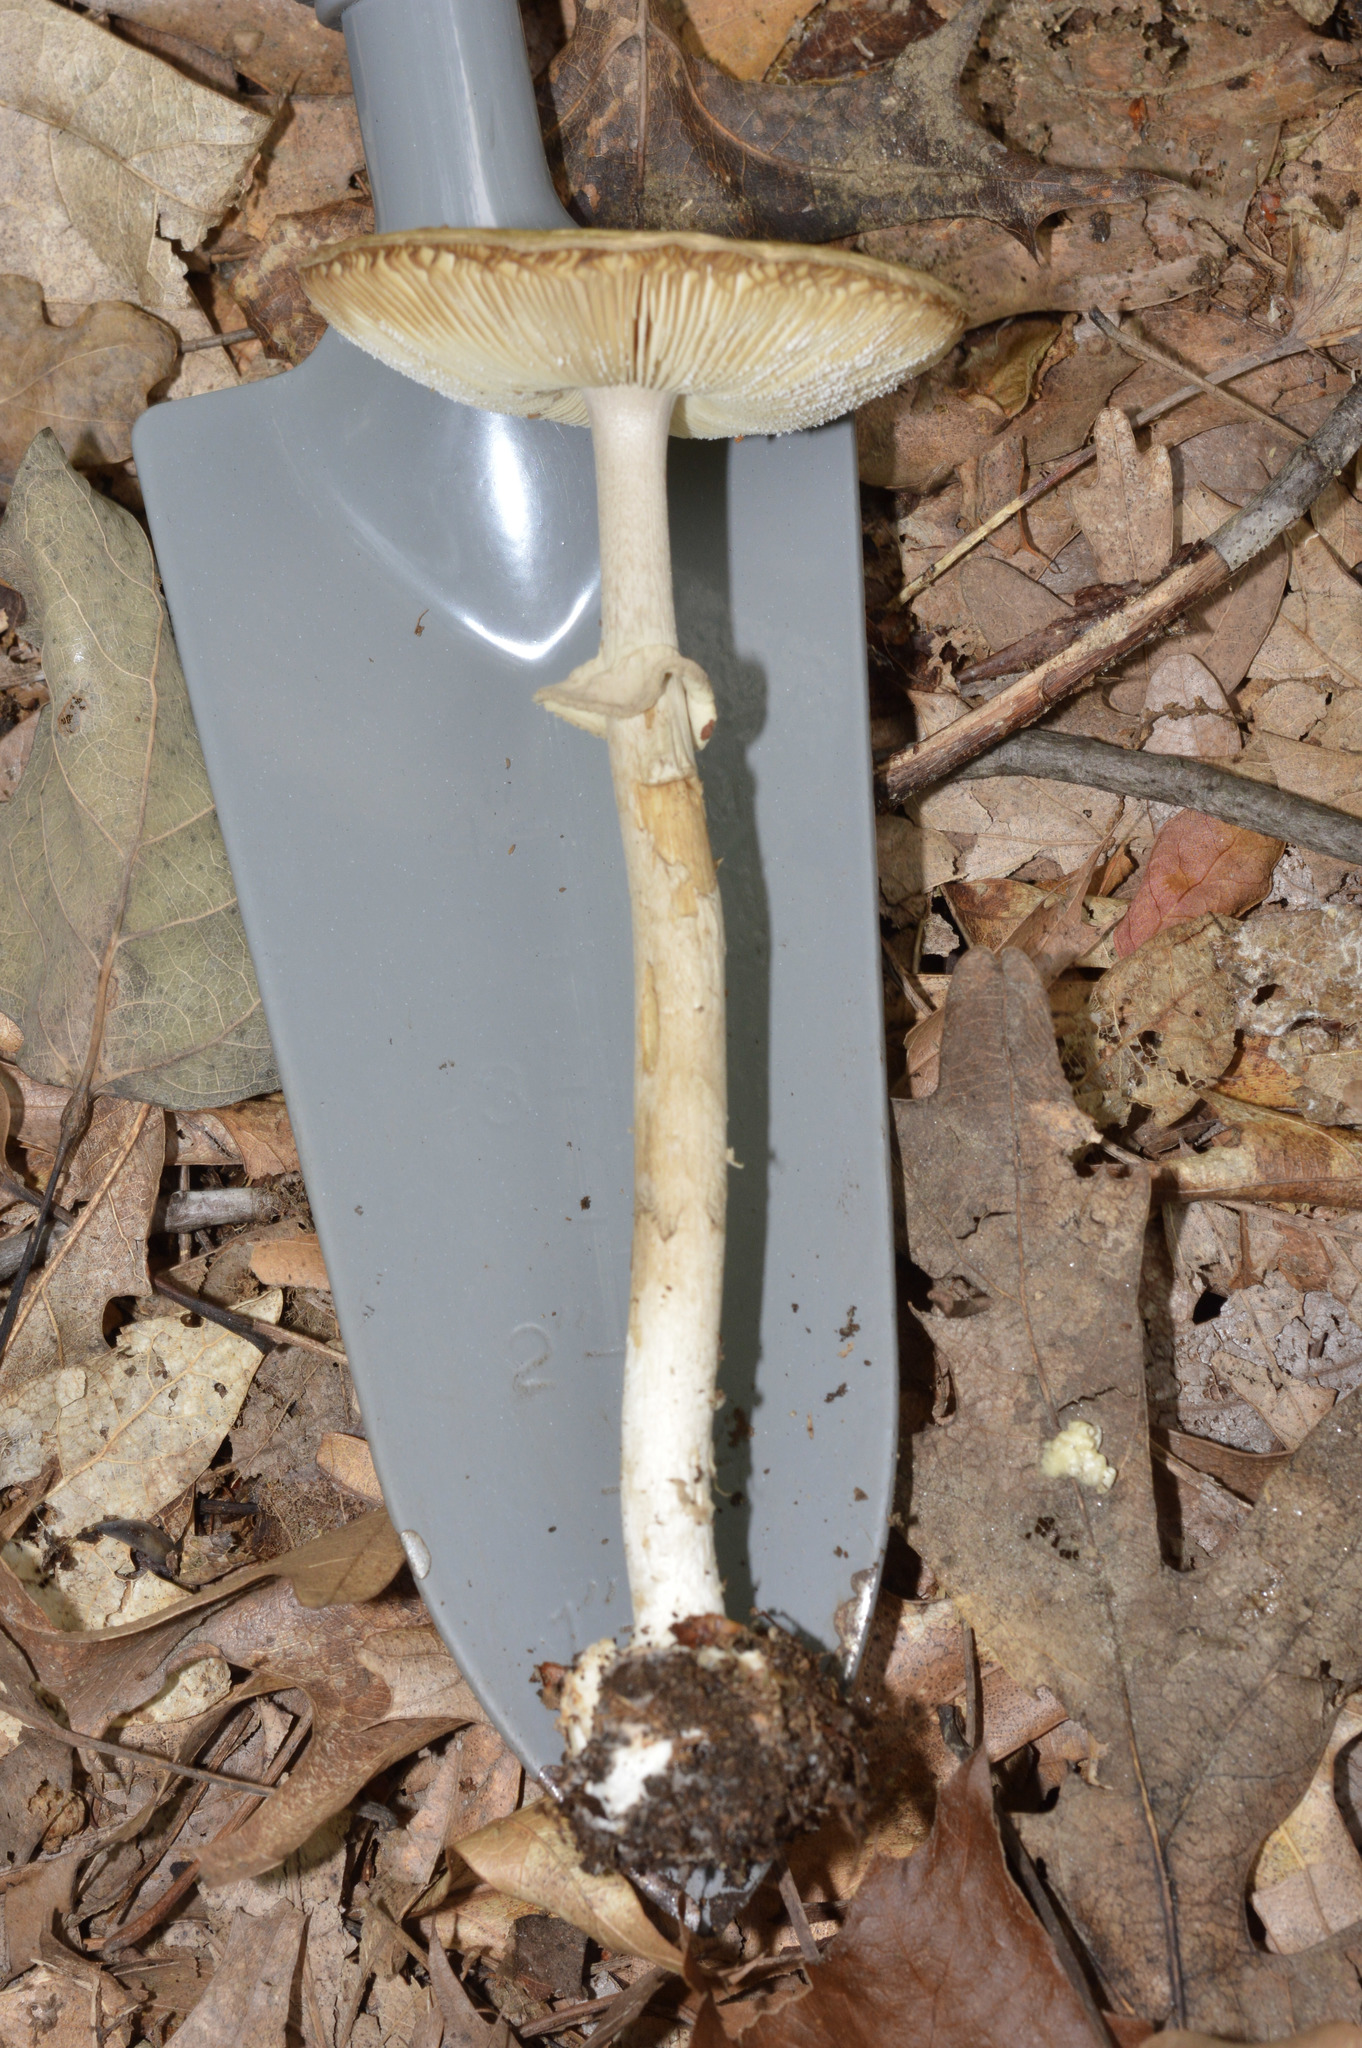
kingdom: Fungi
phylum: Basidiomycota
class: Agaricomycetes
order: Agaricales
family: Amanitaceae
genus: Amanita
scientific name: Amanita lavendula
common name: Coker's lavender staining amanita
